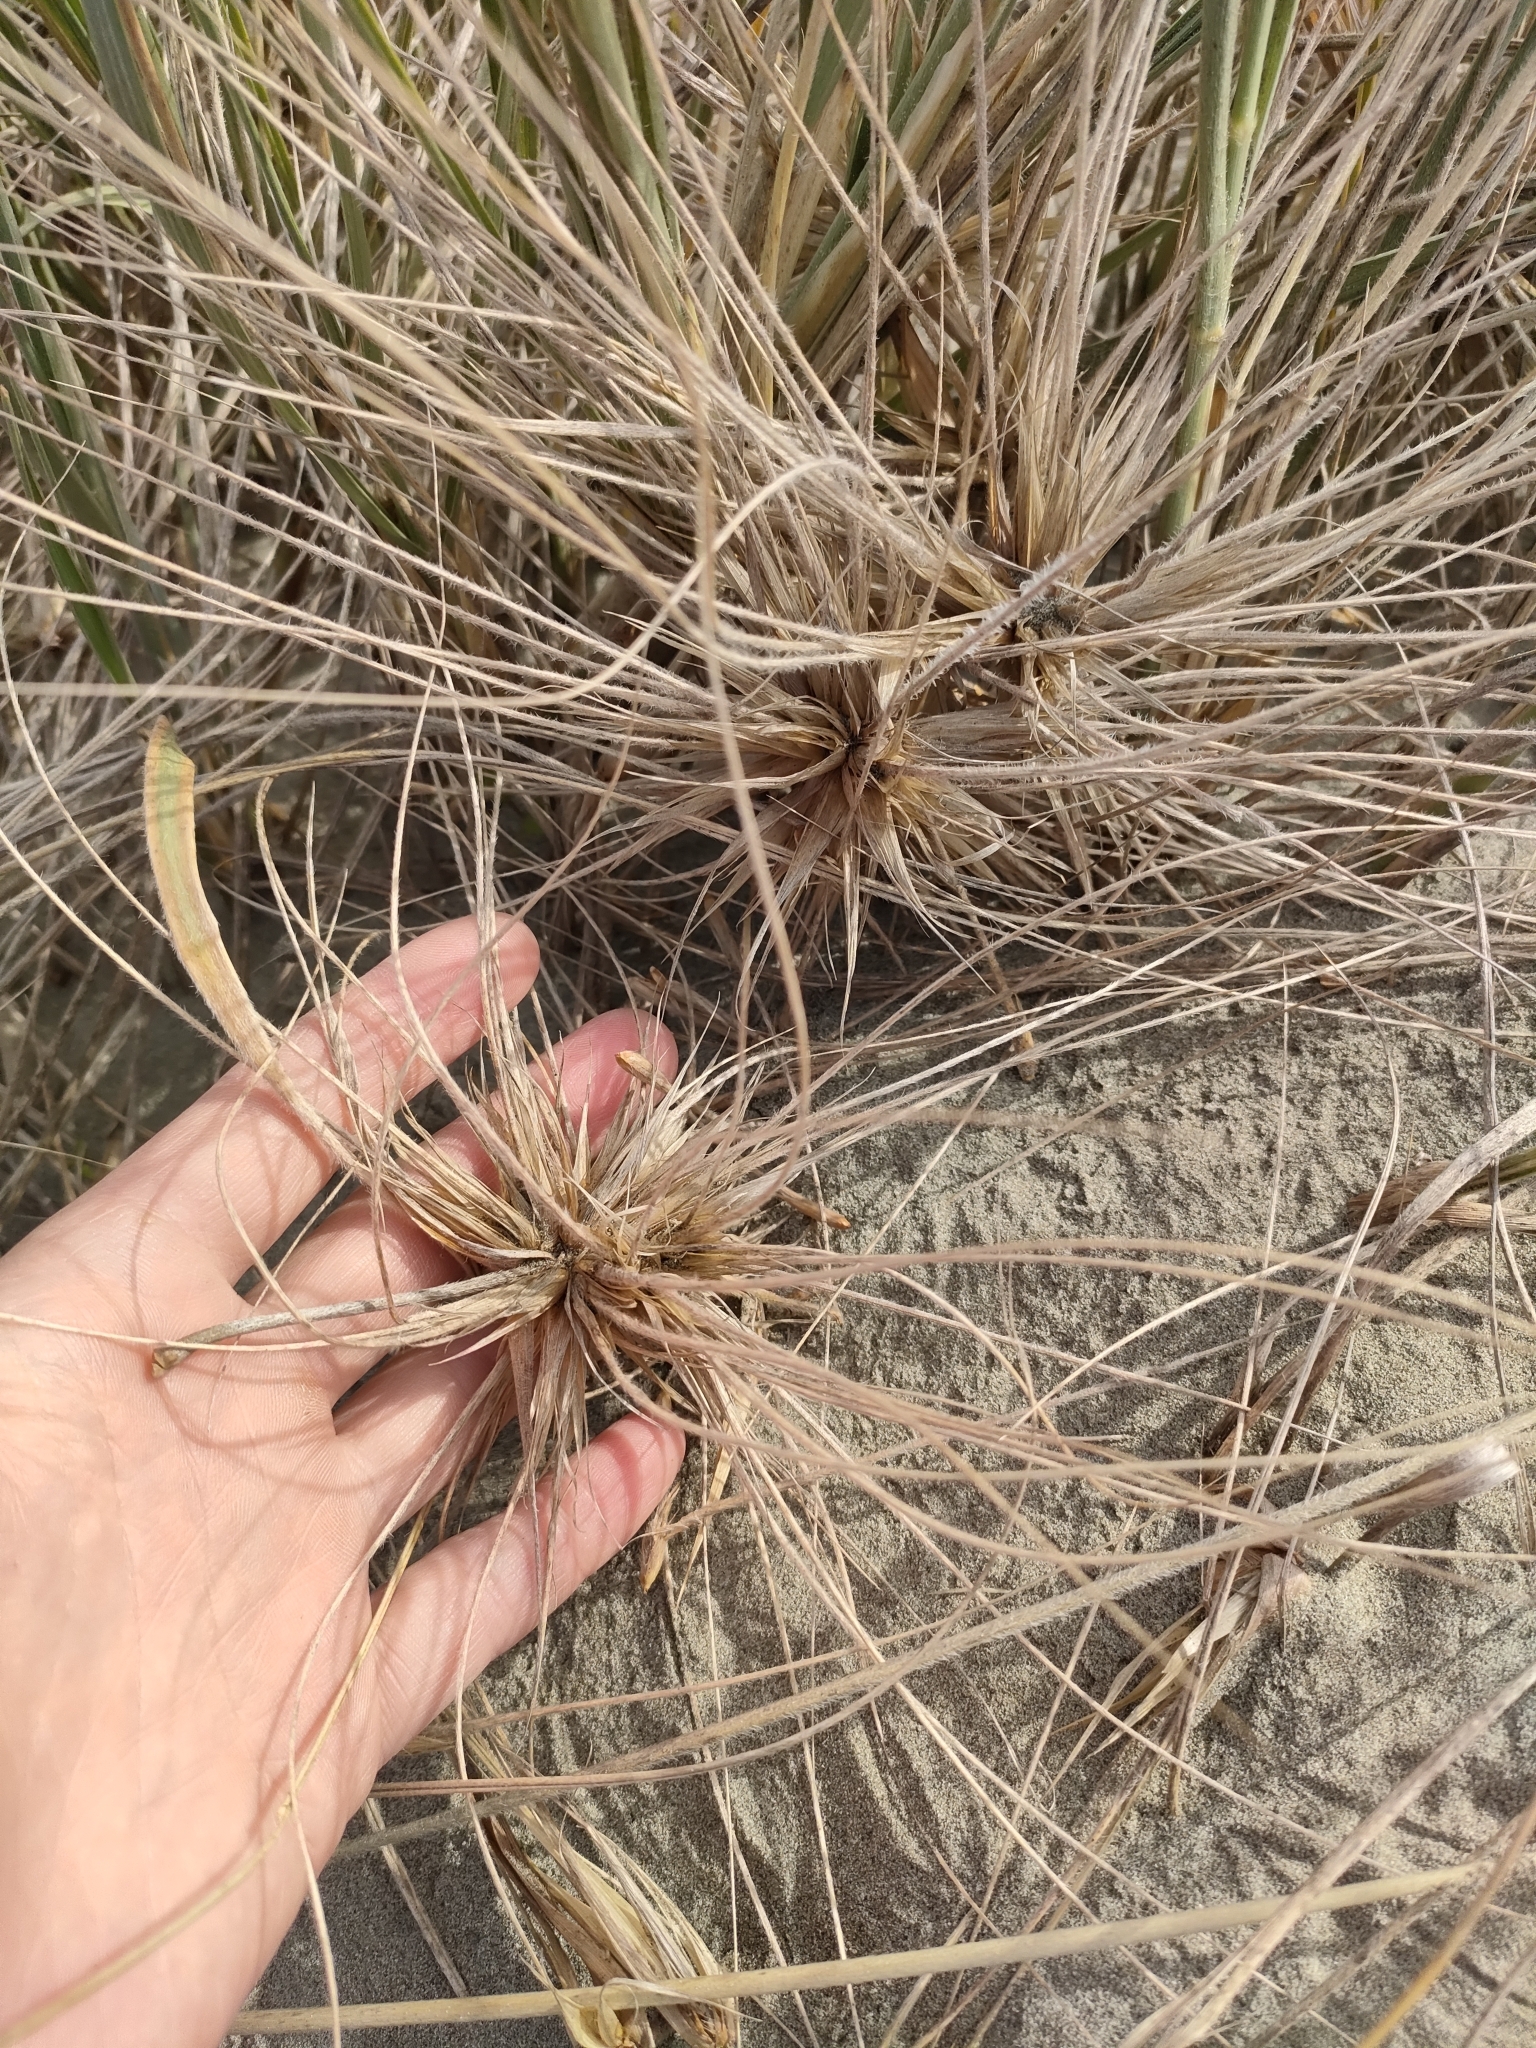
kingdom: Plantae
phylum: Tracheophyta
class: Liliopsida
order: Poales
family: Poaceae
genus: Spinifex
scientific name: Spinifex sericeus
